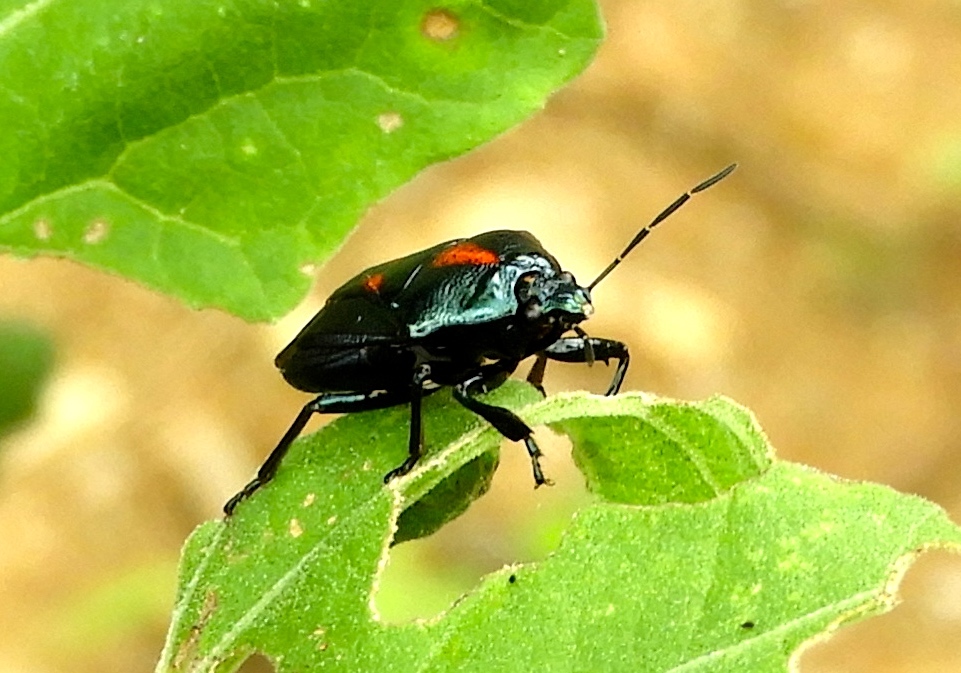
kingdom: Animalia
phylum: Arthropoda
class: Insecta
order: Hemiptera
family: Pentatomidae
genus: Oplomus
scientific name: Oplomus dichrous
